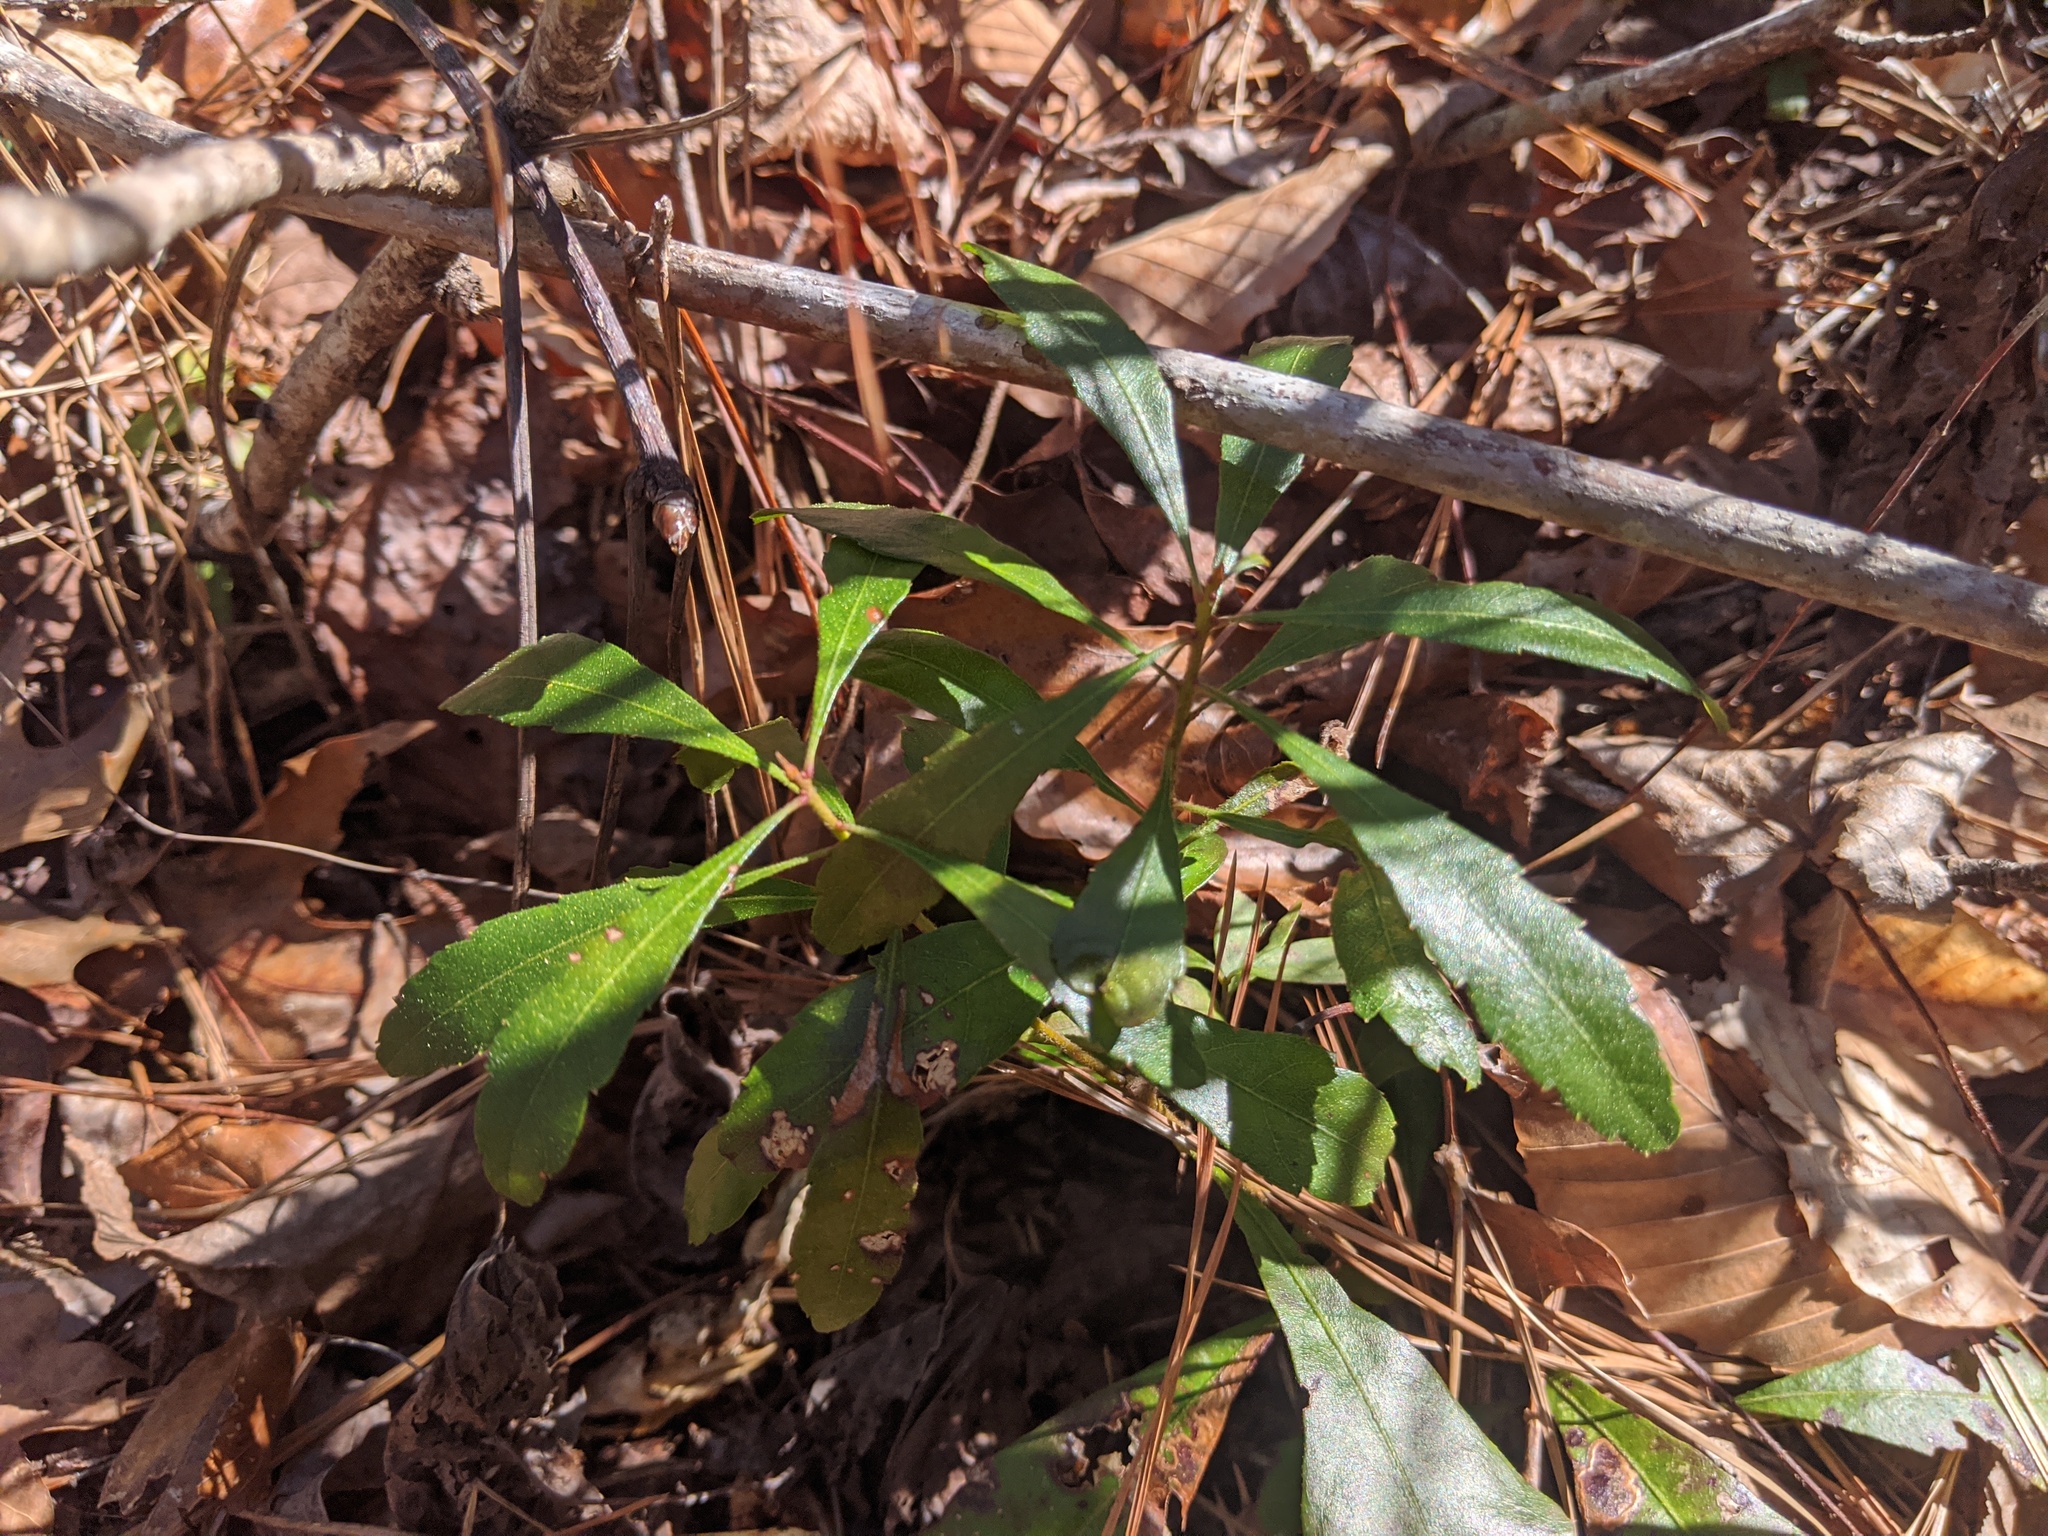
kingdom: Plantae
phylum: Tracheophyta
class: Magnoliopsida
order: Fagales
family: Myricaceae
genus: Morella
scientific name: Morella cerifera
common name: Wax myrtle
